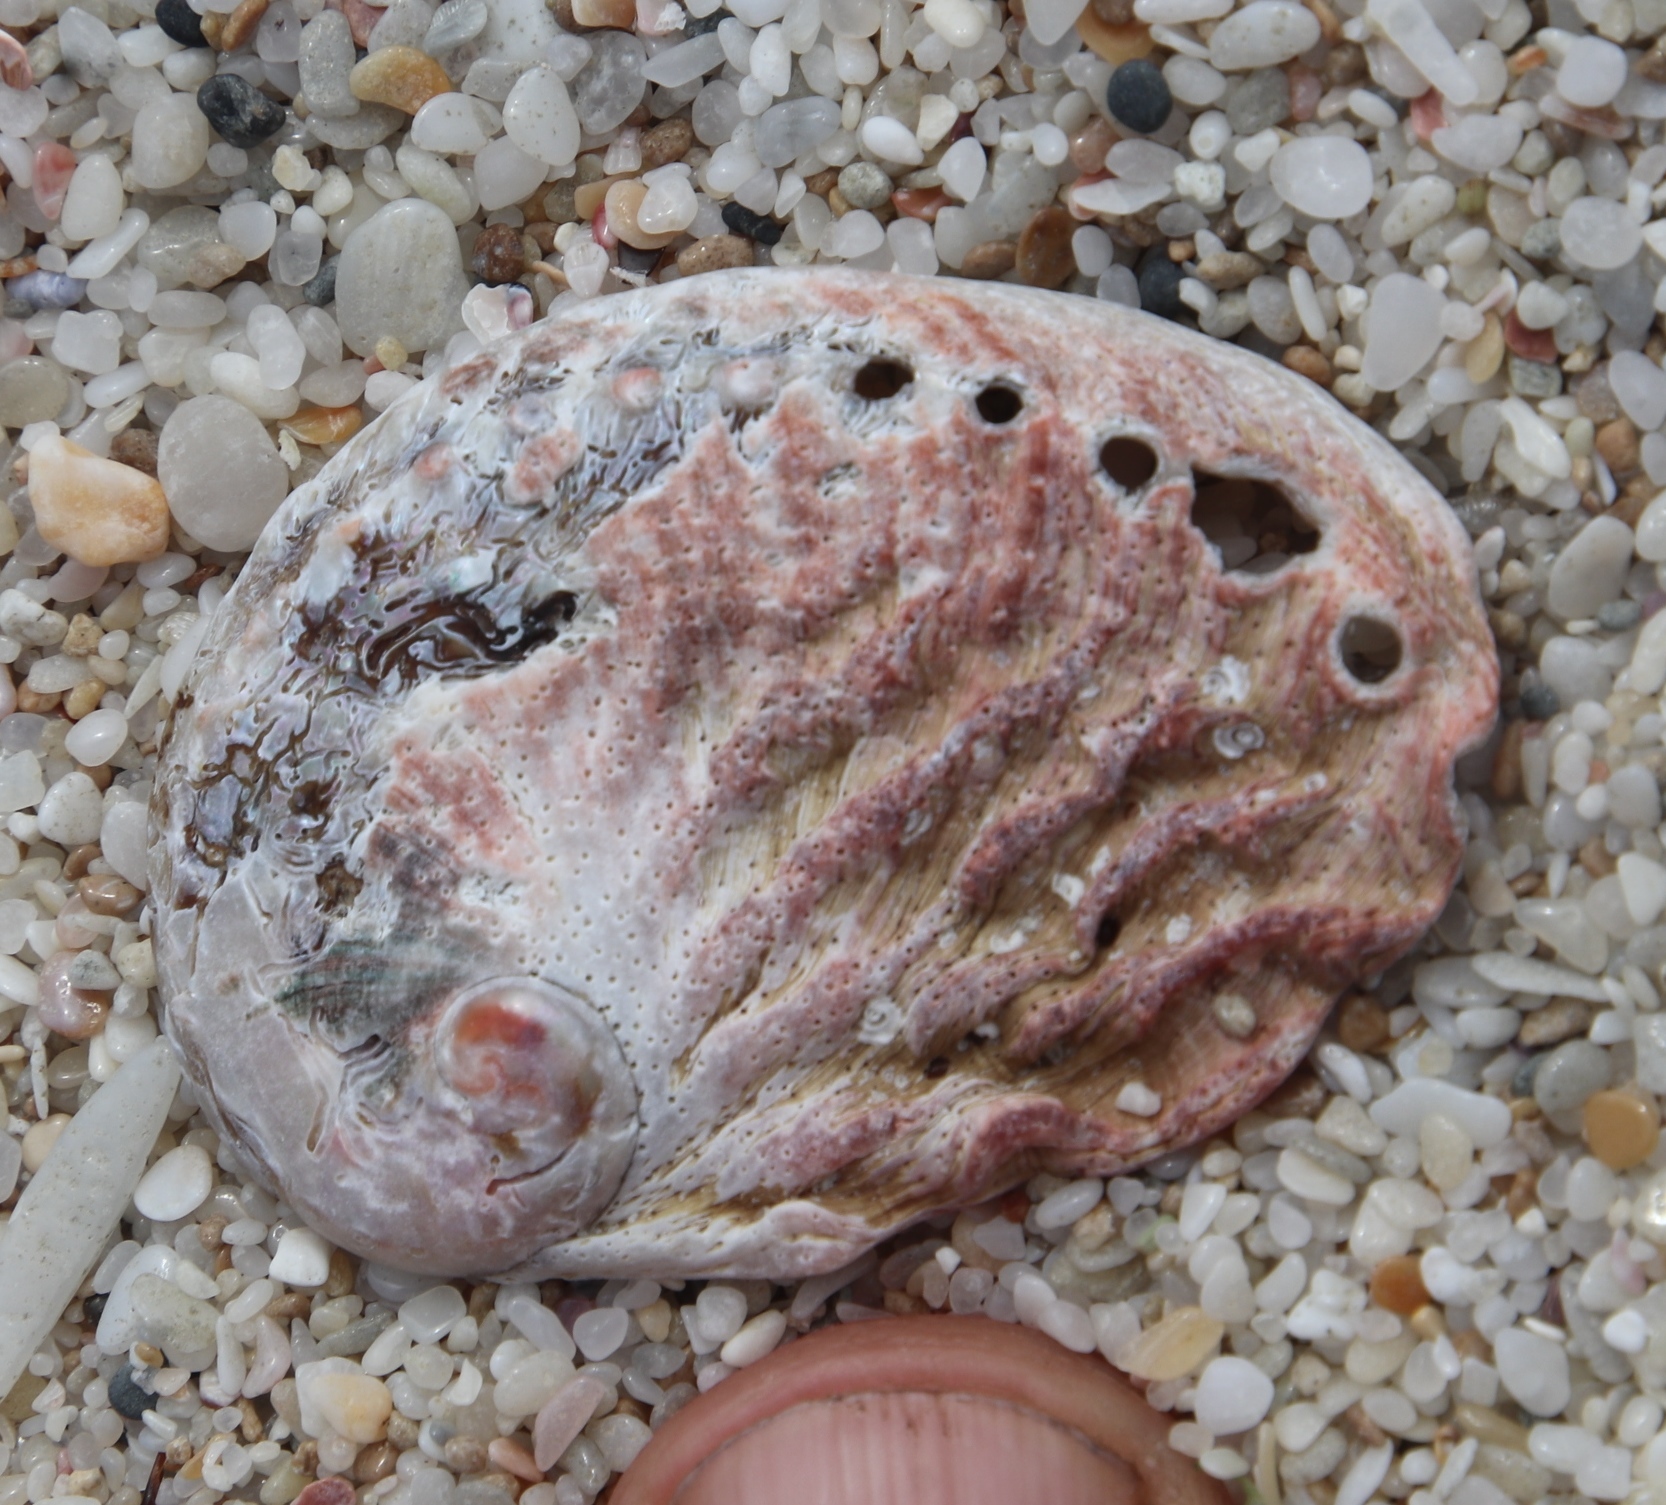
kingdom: Animalia
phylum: Mollusca
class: Gastropoda
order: Lepetellida
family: Haliotidae
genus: Haliotis
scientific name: Haliotis midae
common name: Perlemoen
